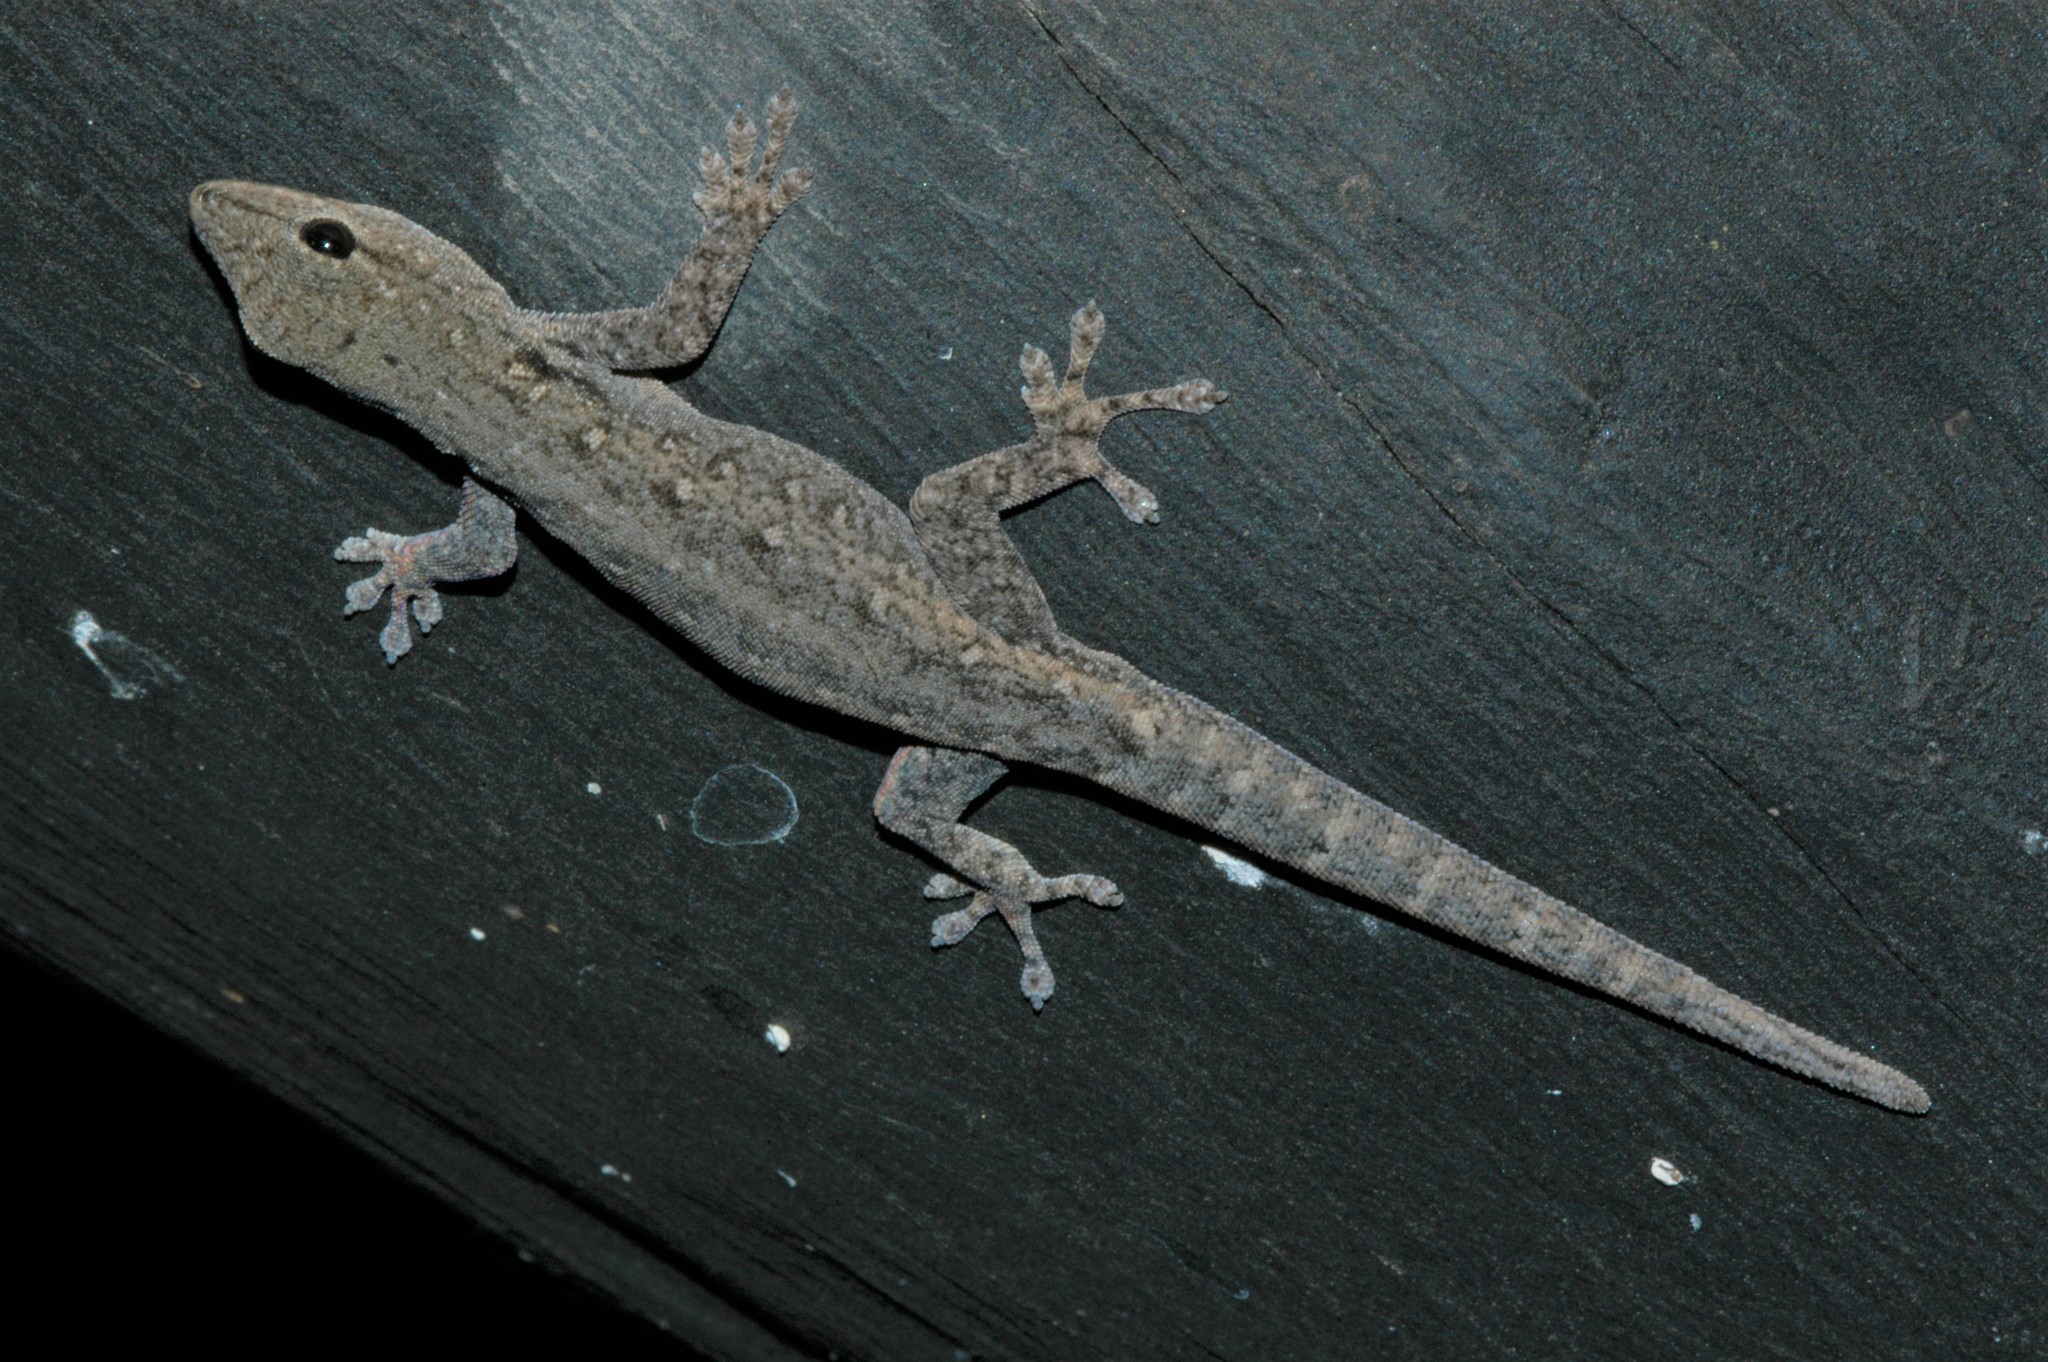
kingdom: Animalia
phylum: Chordata
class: Squamata
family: Gekkonidae
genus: Lygodactylus
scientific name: Lygodactylus chobiensis
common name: Okavango dwarf gecko
